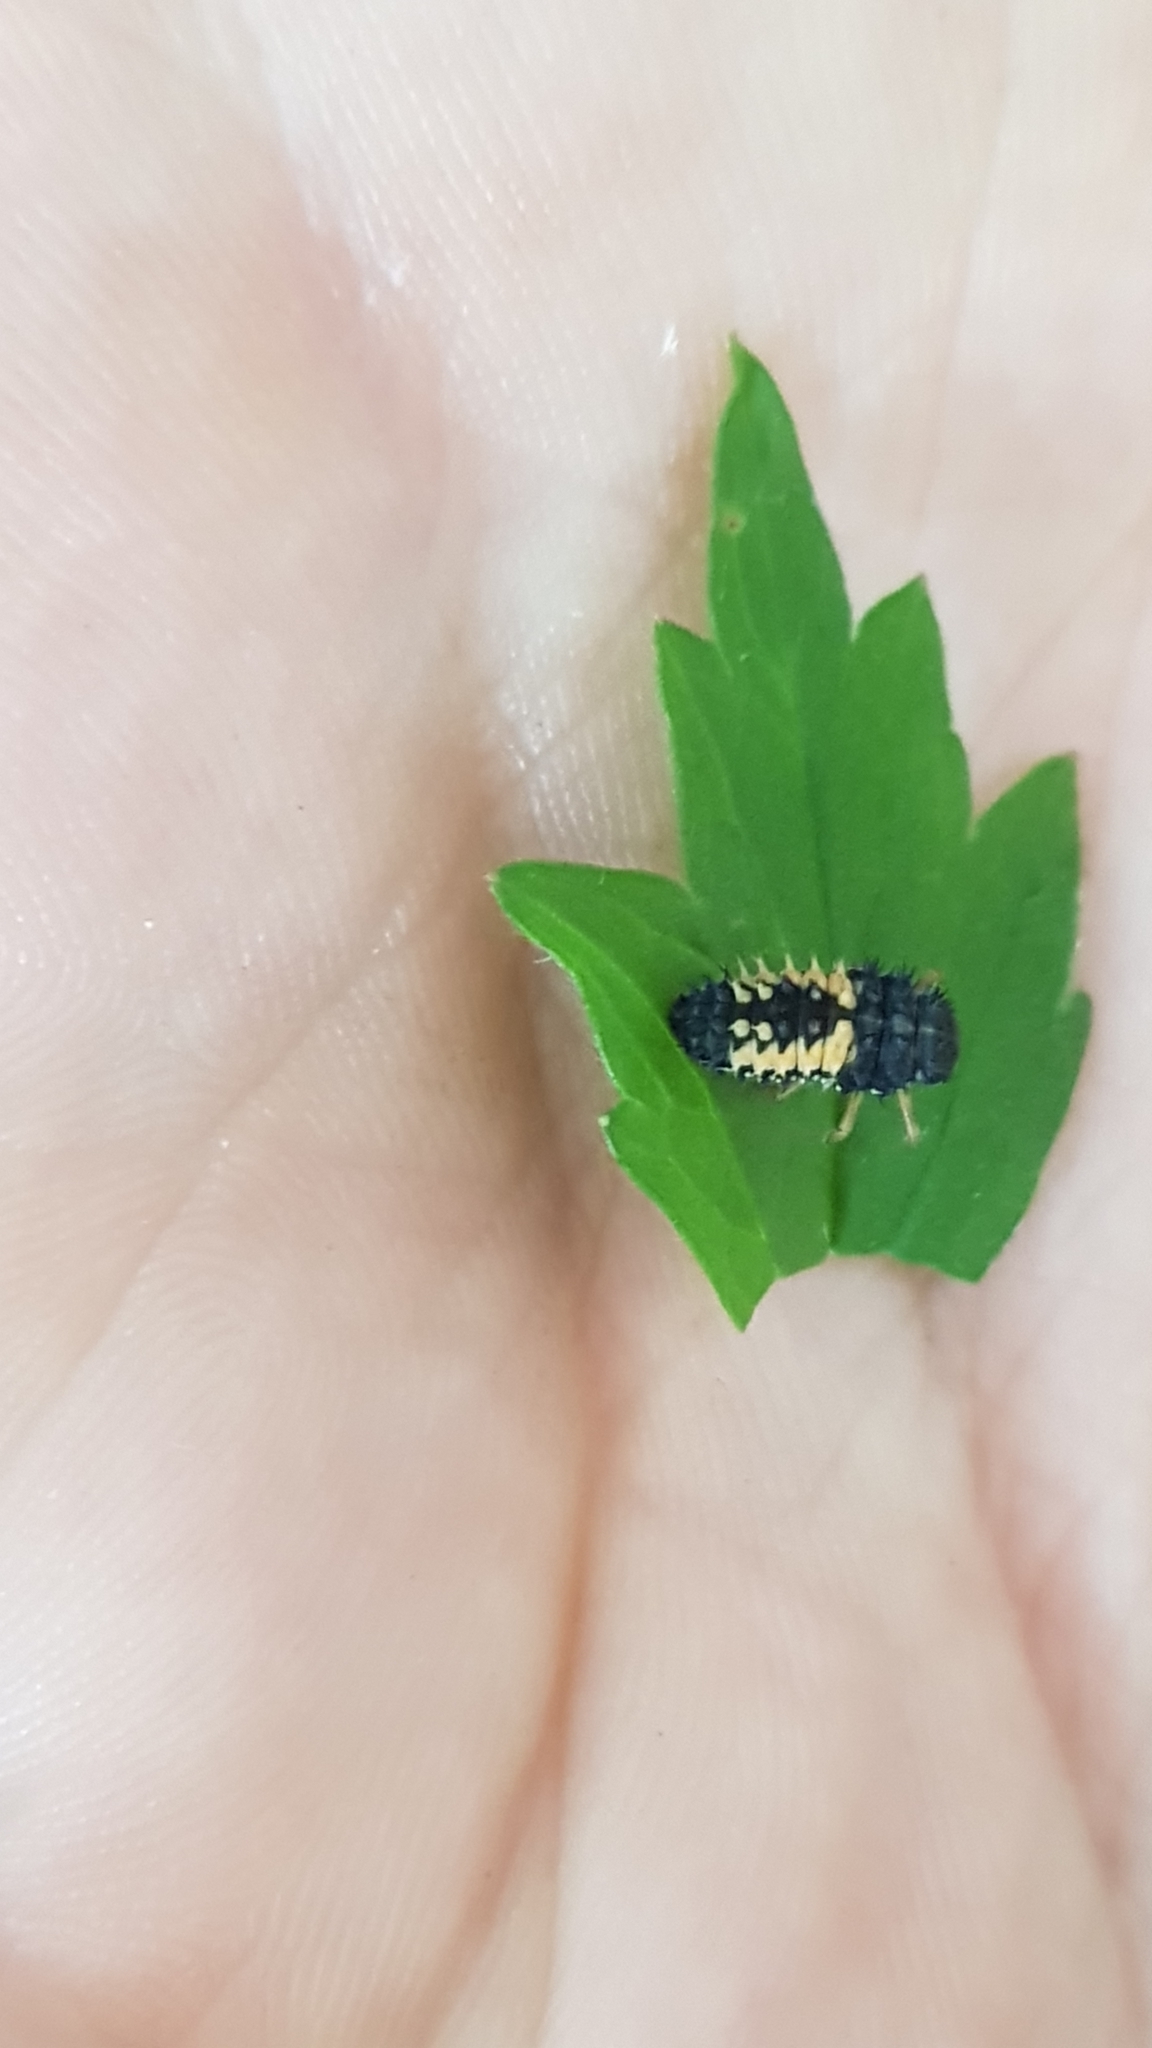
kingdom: Animalia
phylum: Arthropoda
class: Insecta
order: Coleoptera
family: Coccinellidae
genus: Harmonia
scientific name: Harmonia axyridis
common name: Harlequin ladybird
